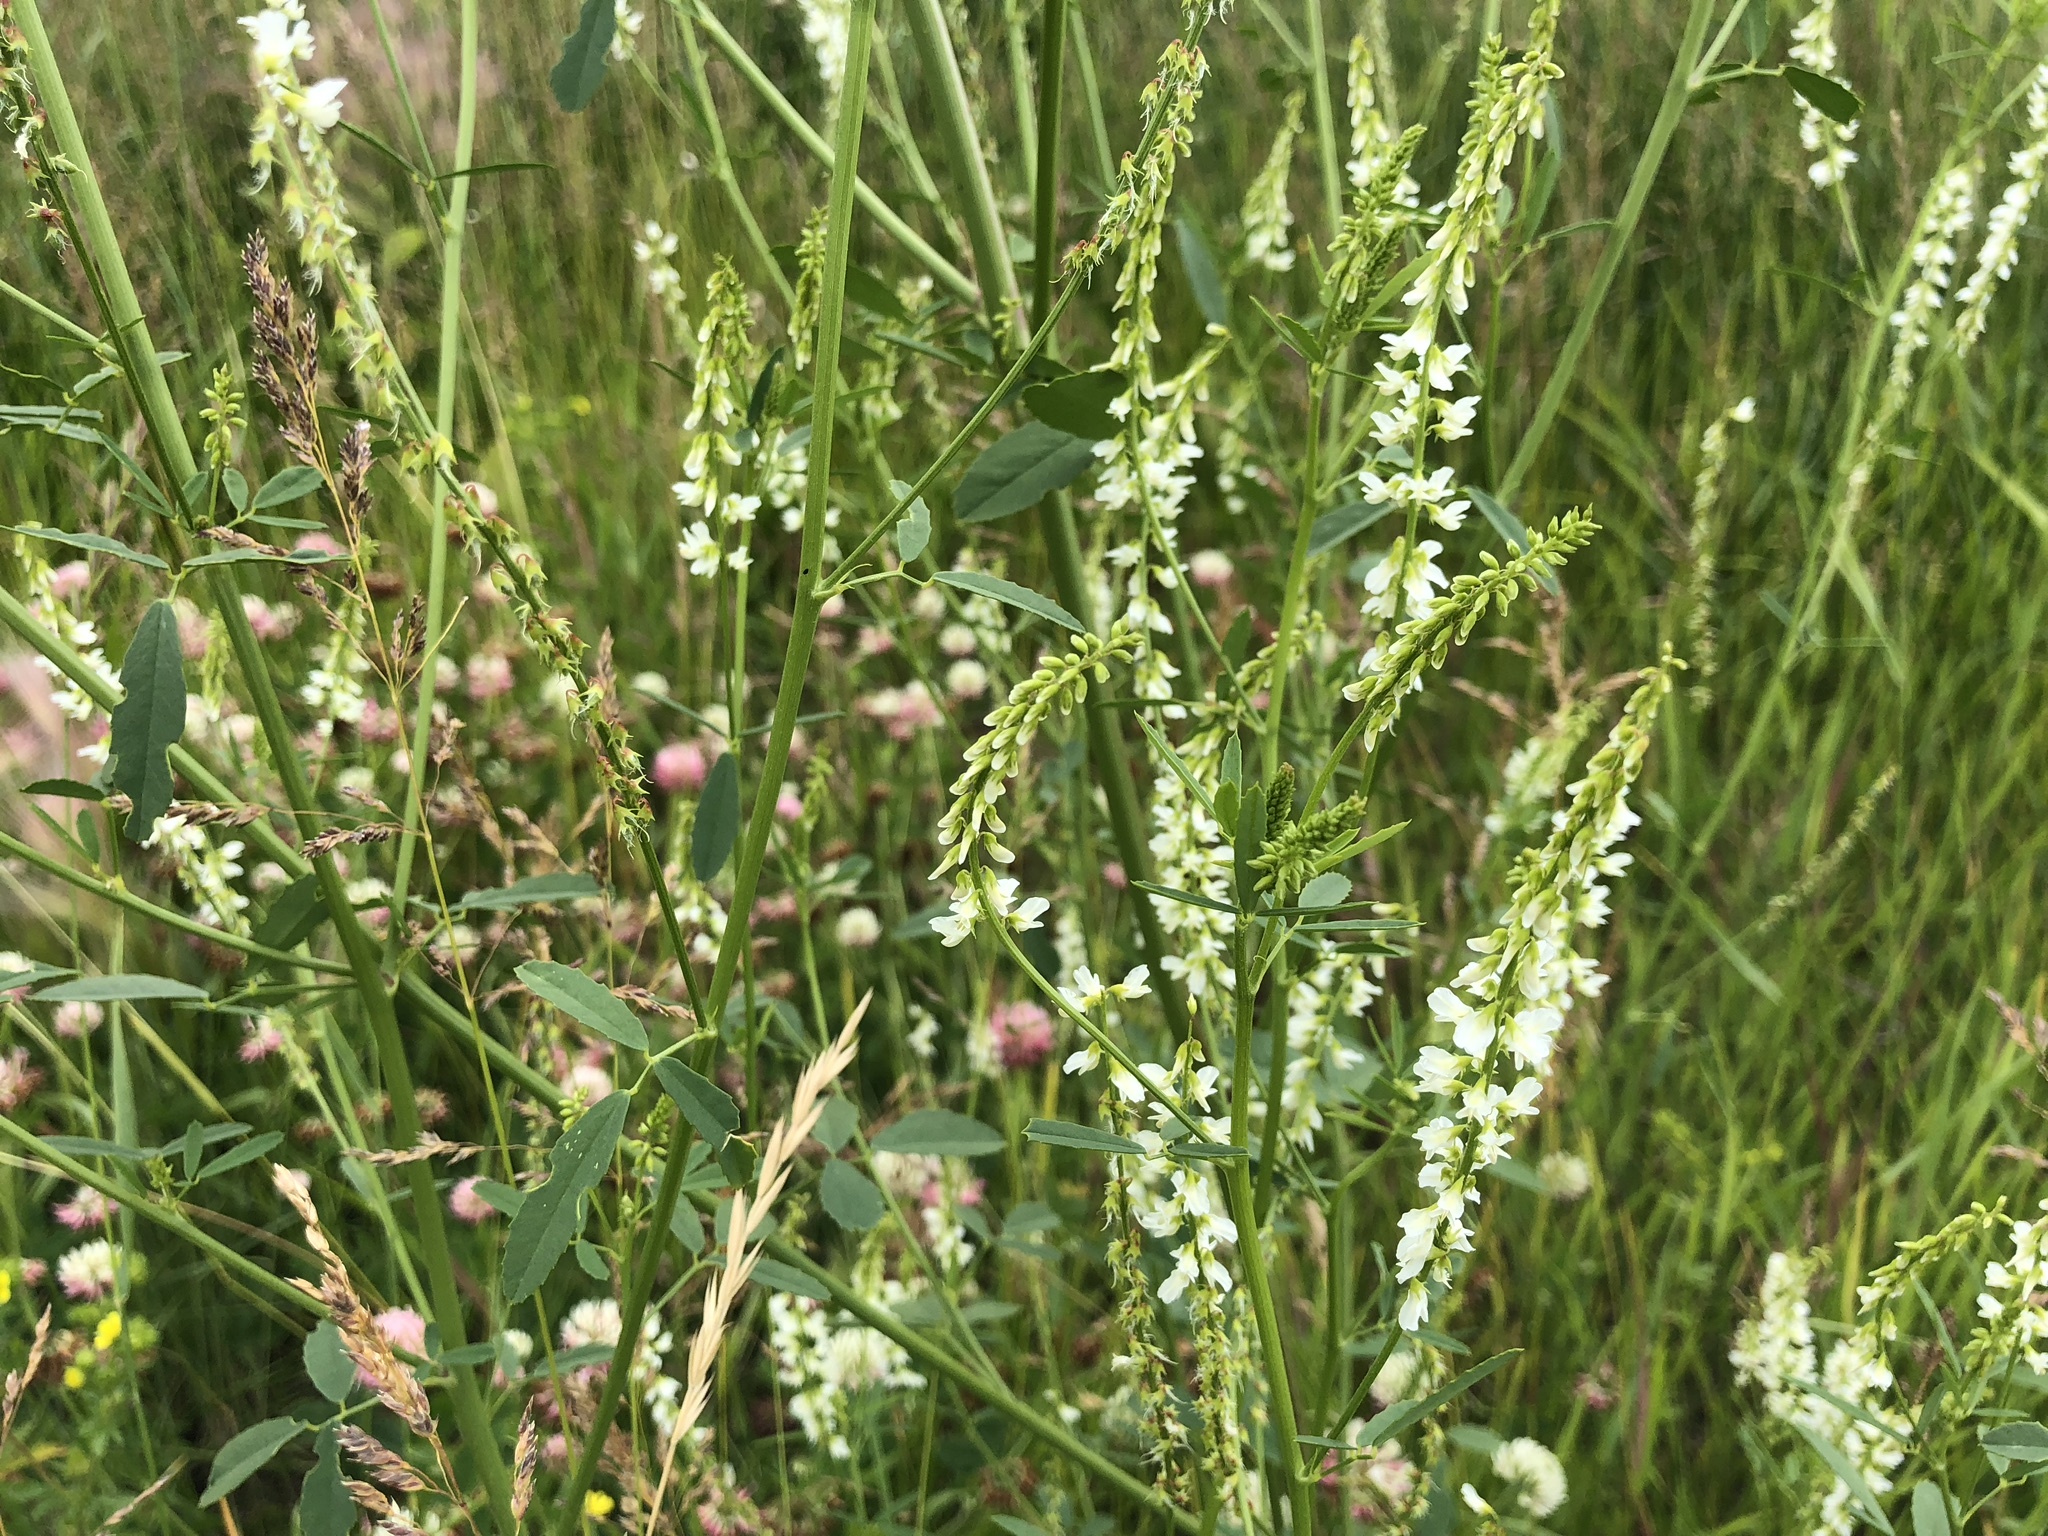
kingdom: Plantae
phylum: Tracheophyta
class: Magnoliopsida
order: Fabales
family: Fabaceae
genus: Melilotus
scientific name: Melilotus albus
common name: White melilot
